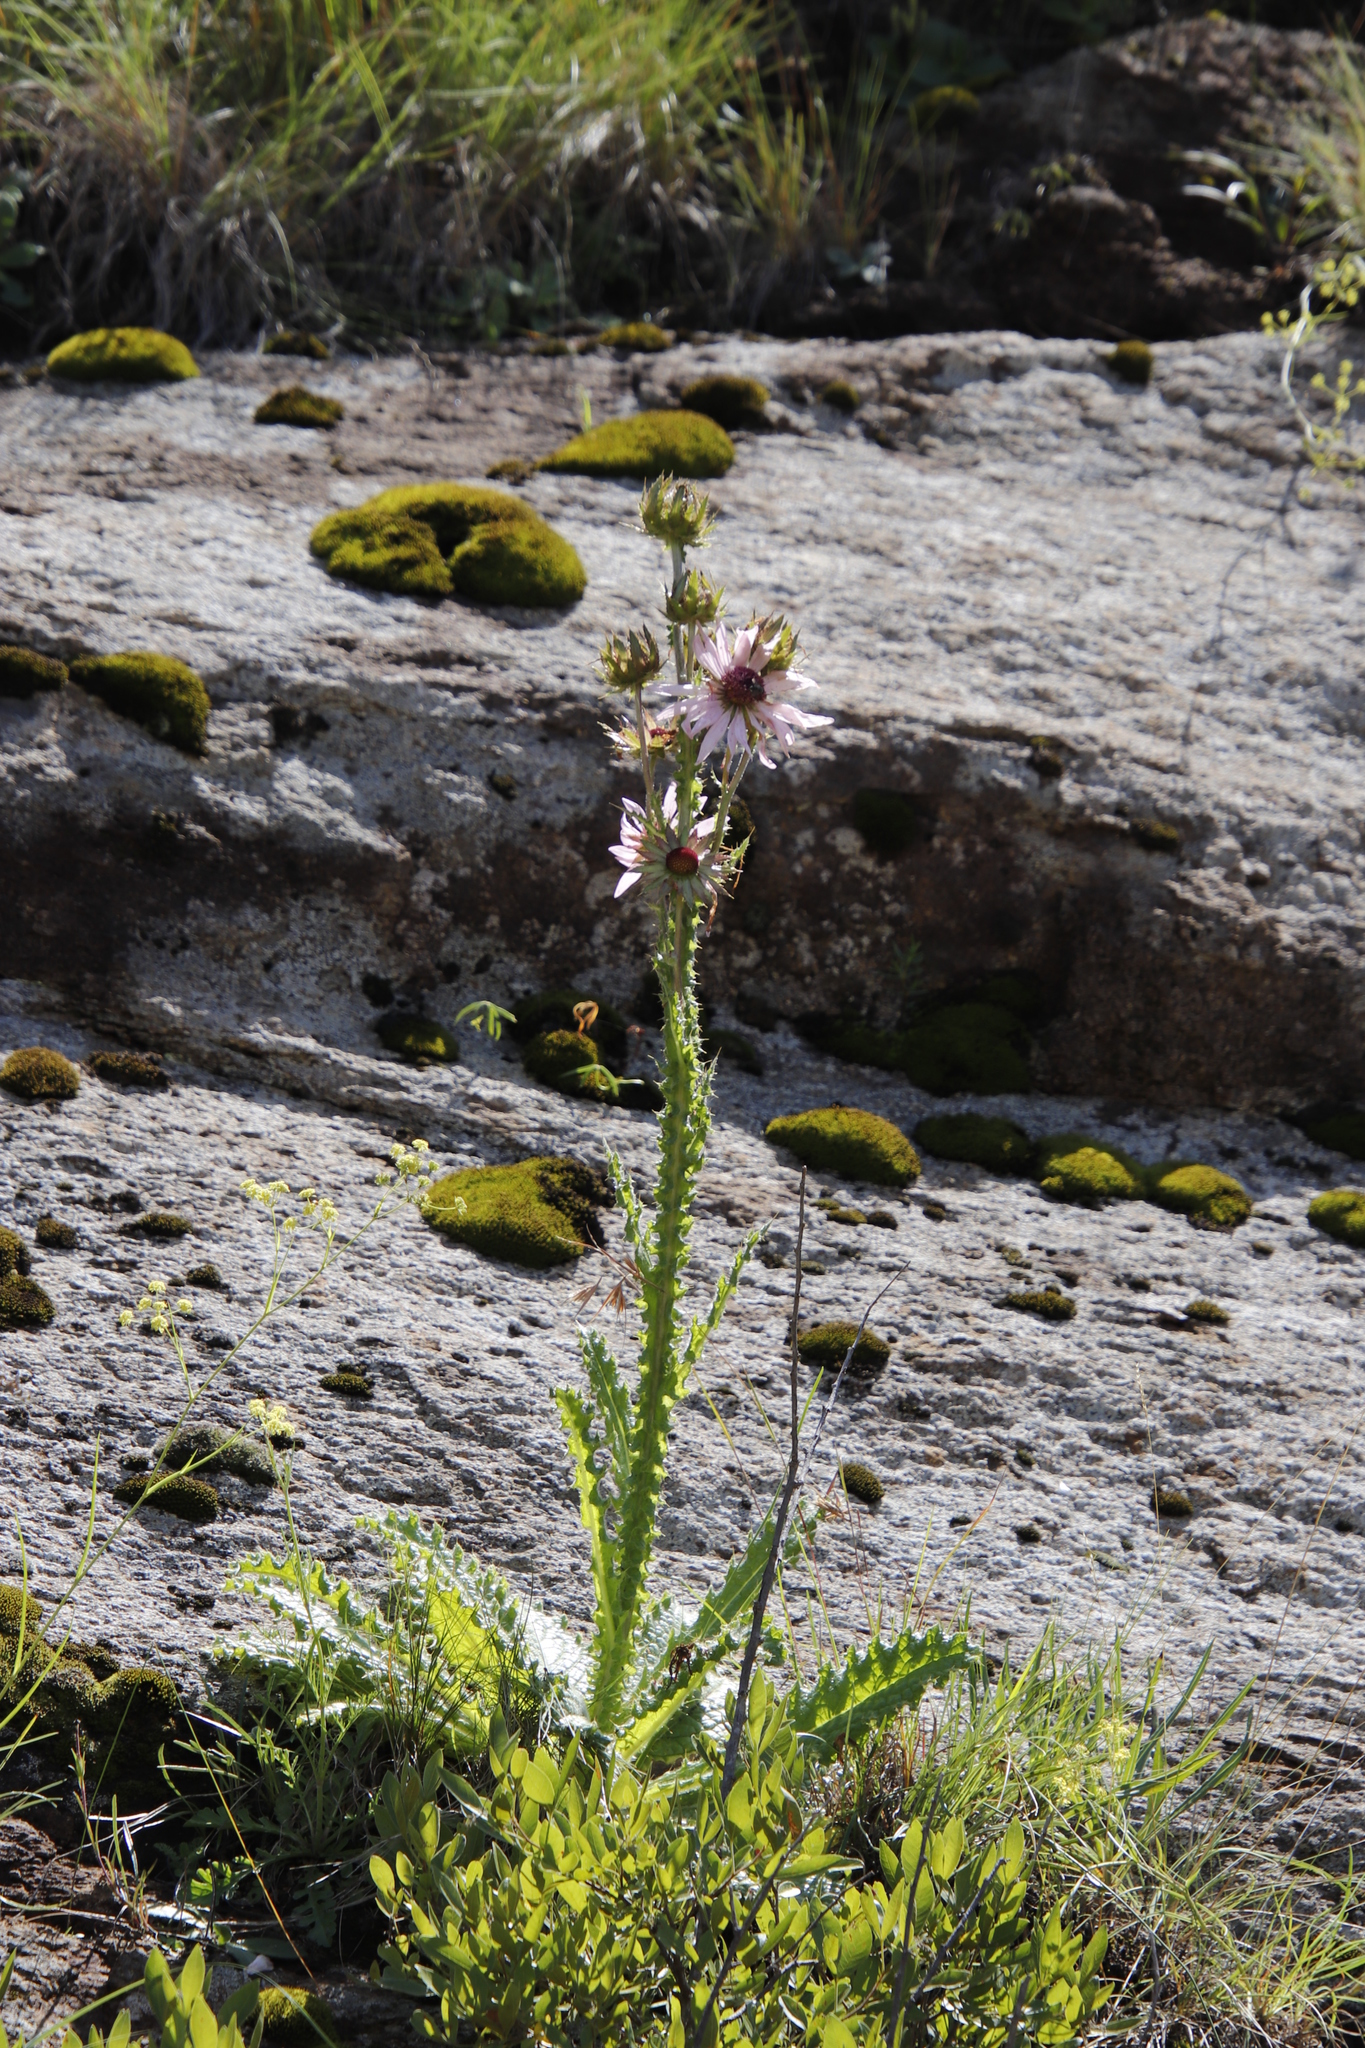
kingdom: Plantae
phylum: Tracheophyta
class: Magnoliopsida
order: Asterales
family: Asteraceae
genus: Berkheya
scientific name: Berkheya purpurea
